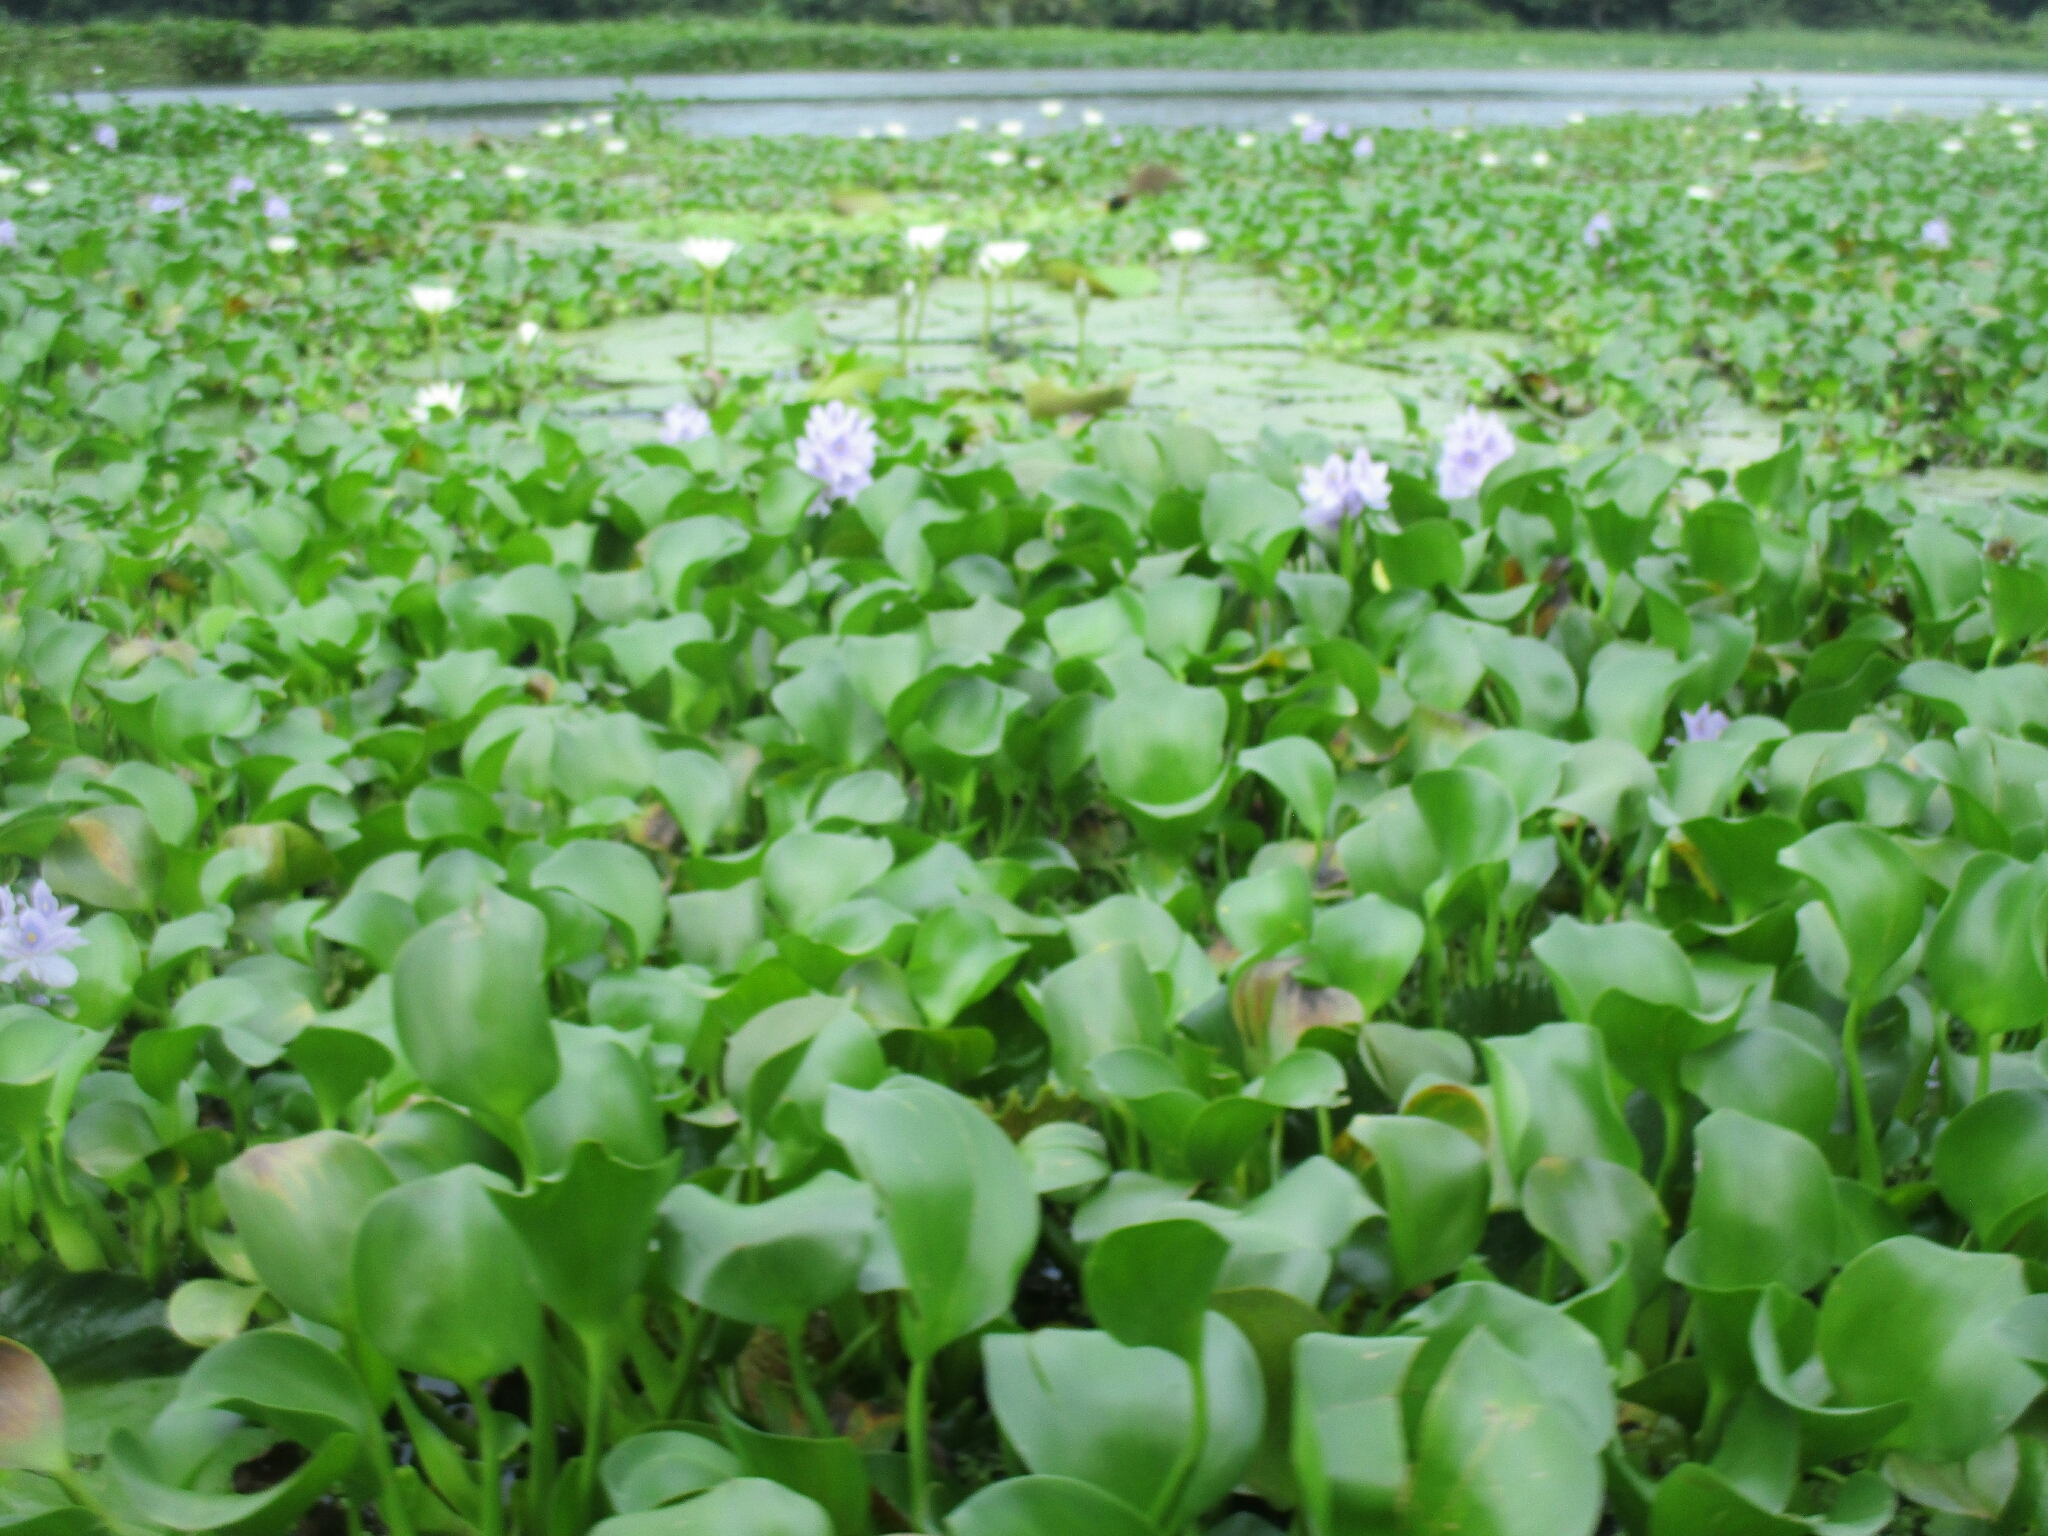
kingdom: Plantae
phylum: Tracheophyta
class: Liliopsida
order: Commelinales
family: Pontederiaceae
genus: Pontederia
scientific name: Pontederia crassipes
